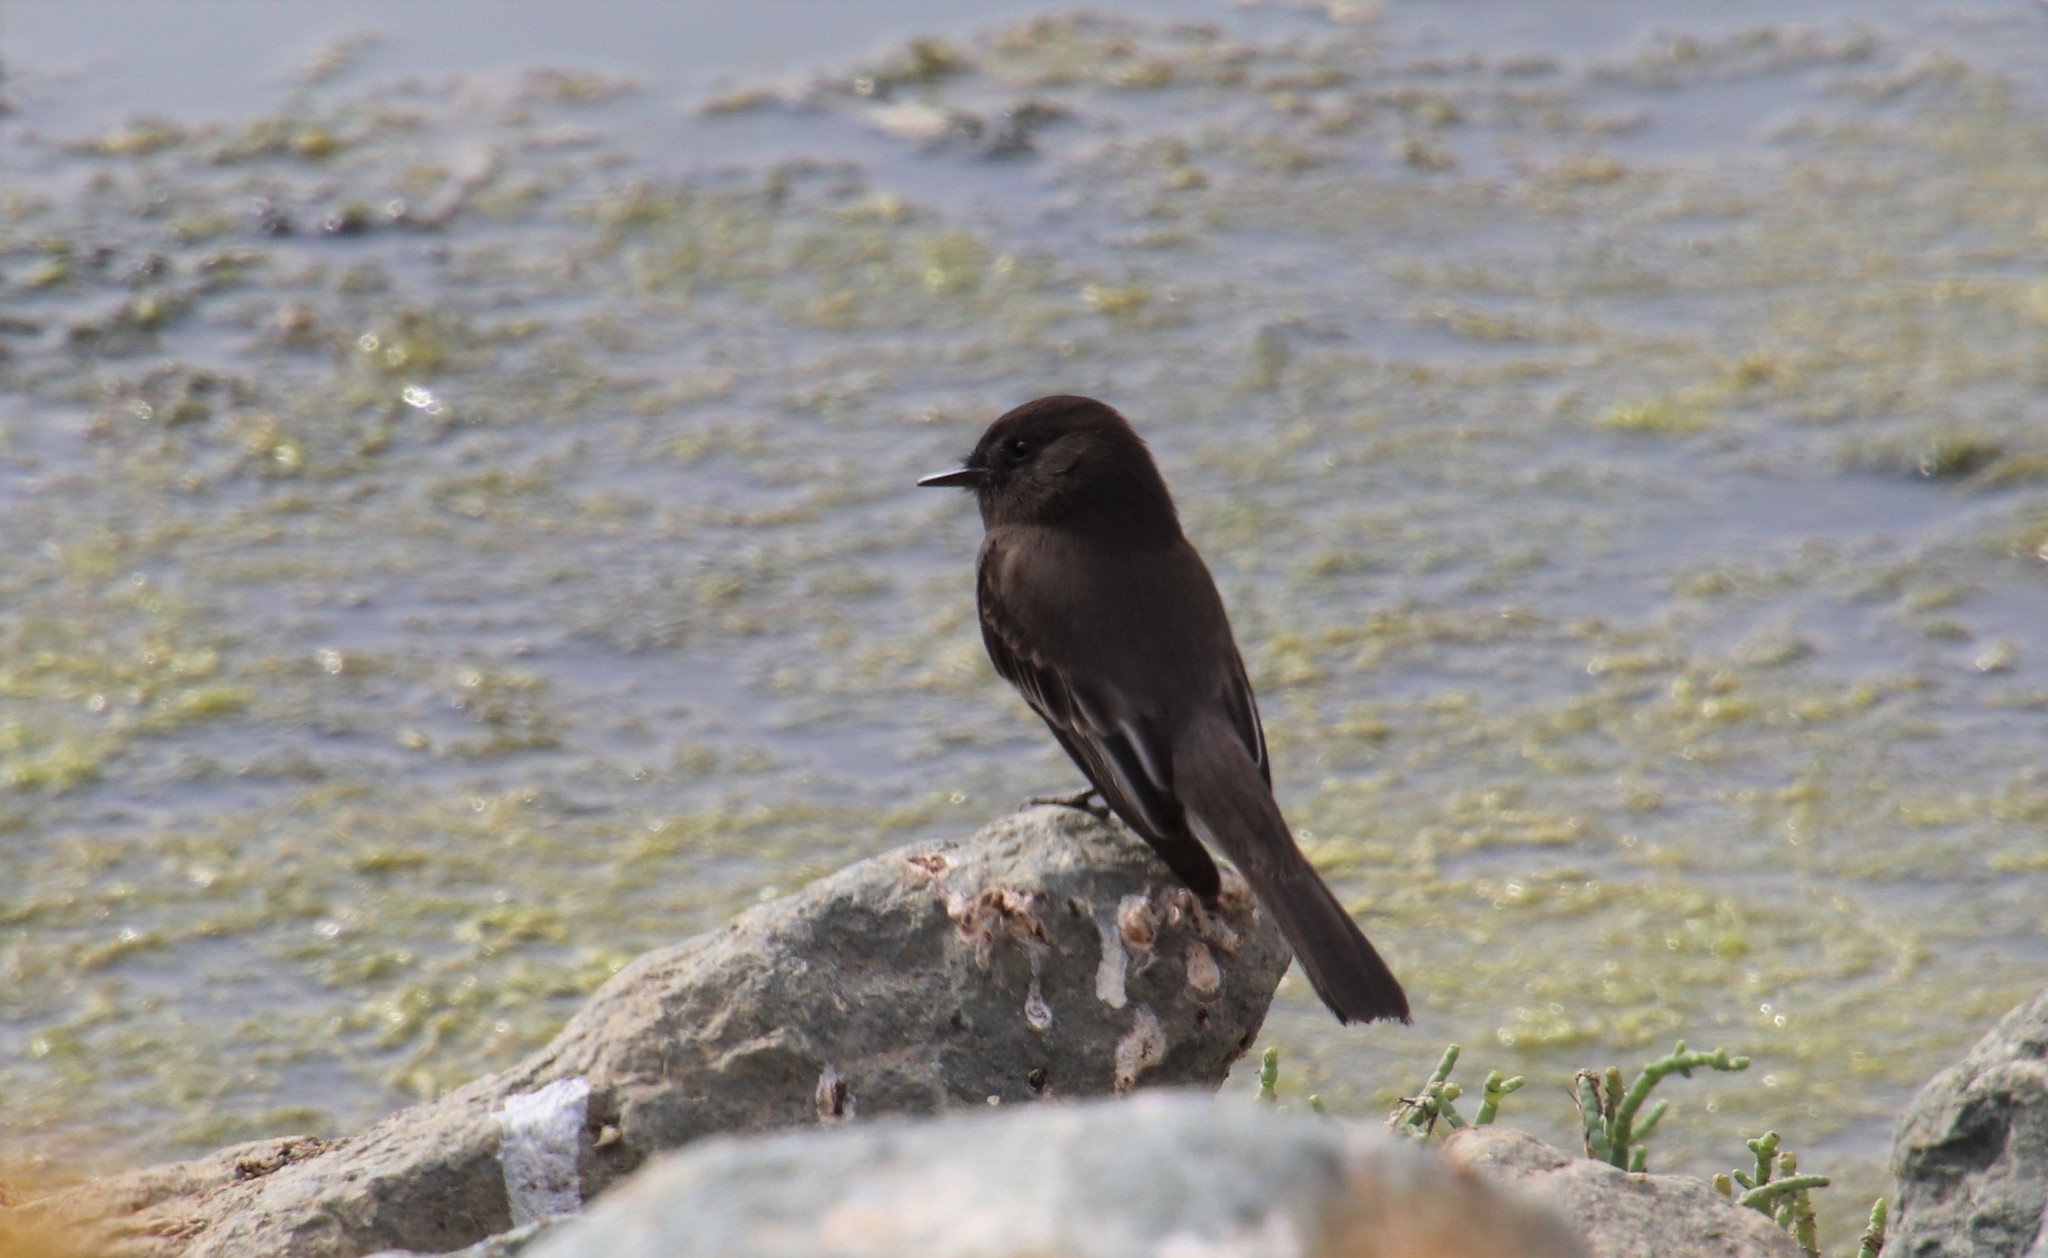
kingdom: Animalia
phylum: Chordata
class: Aves
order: Passeriformes
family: Tyrannidae
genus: Sayornis
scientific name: Sayornis nigricans
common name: Black phoebe
